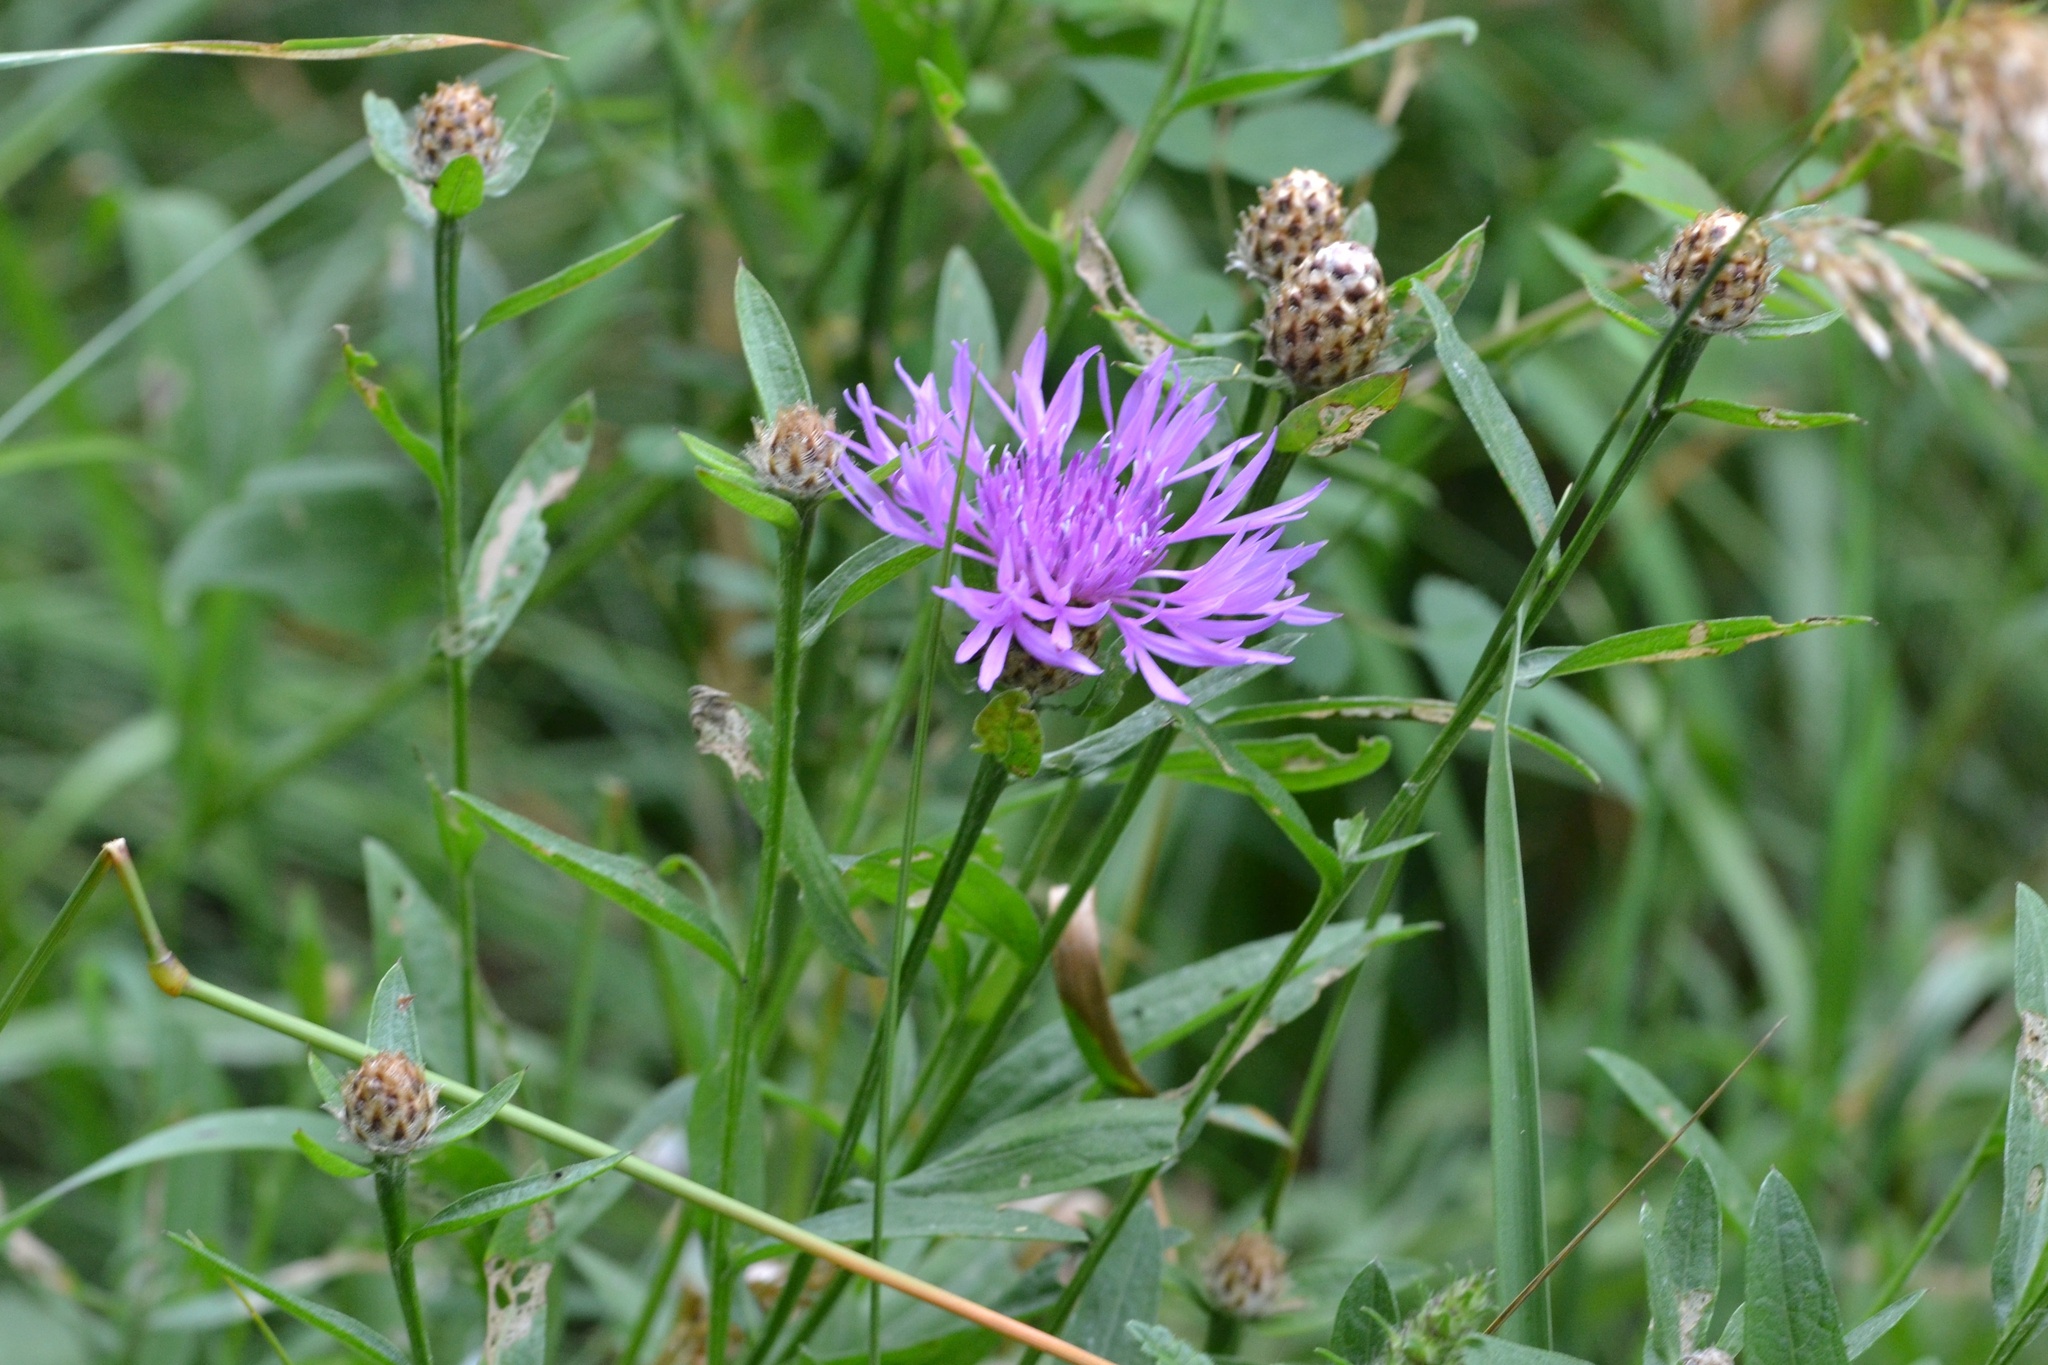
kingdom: Plantae
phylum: Tracheophyta
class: Magnoliopsida
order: Asterales
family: Asteraceae
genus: Centaurea
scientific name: Centaurea fleischeri
